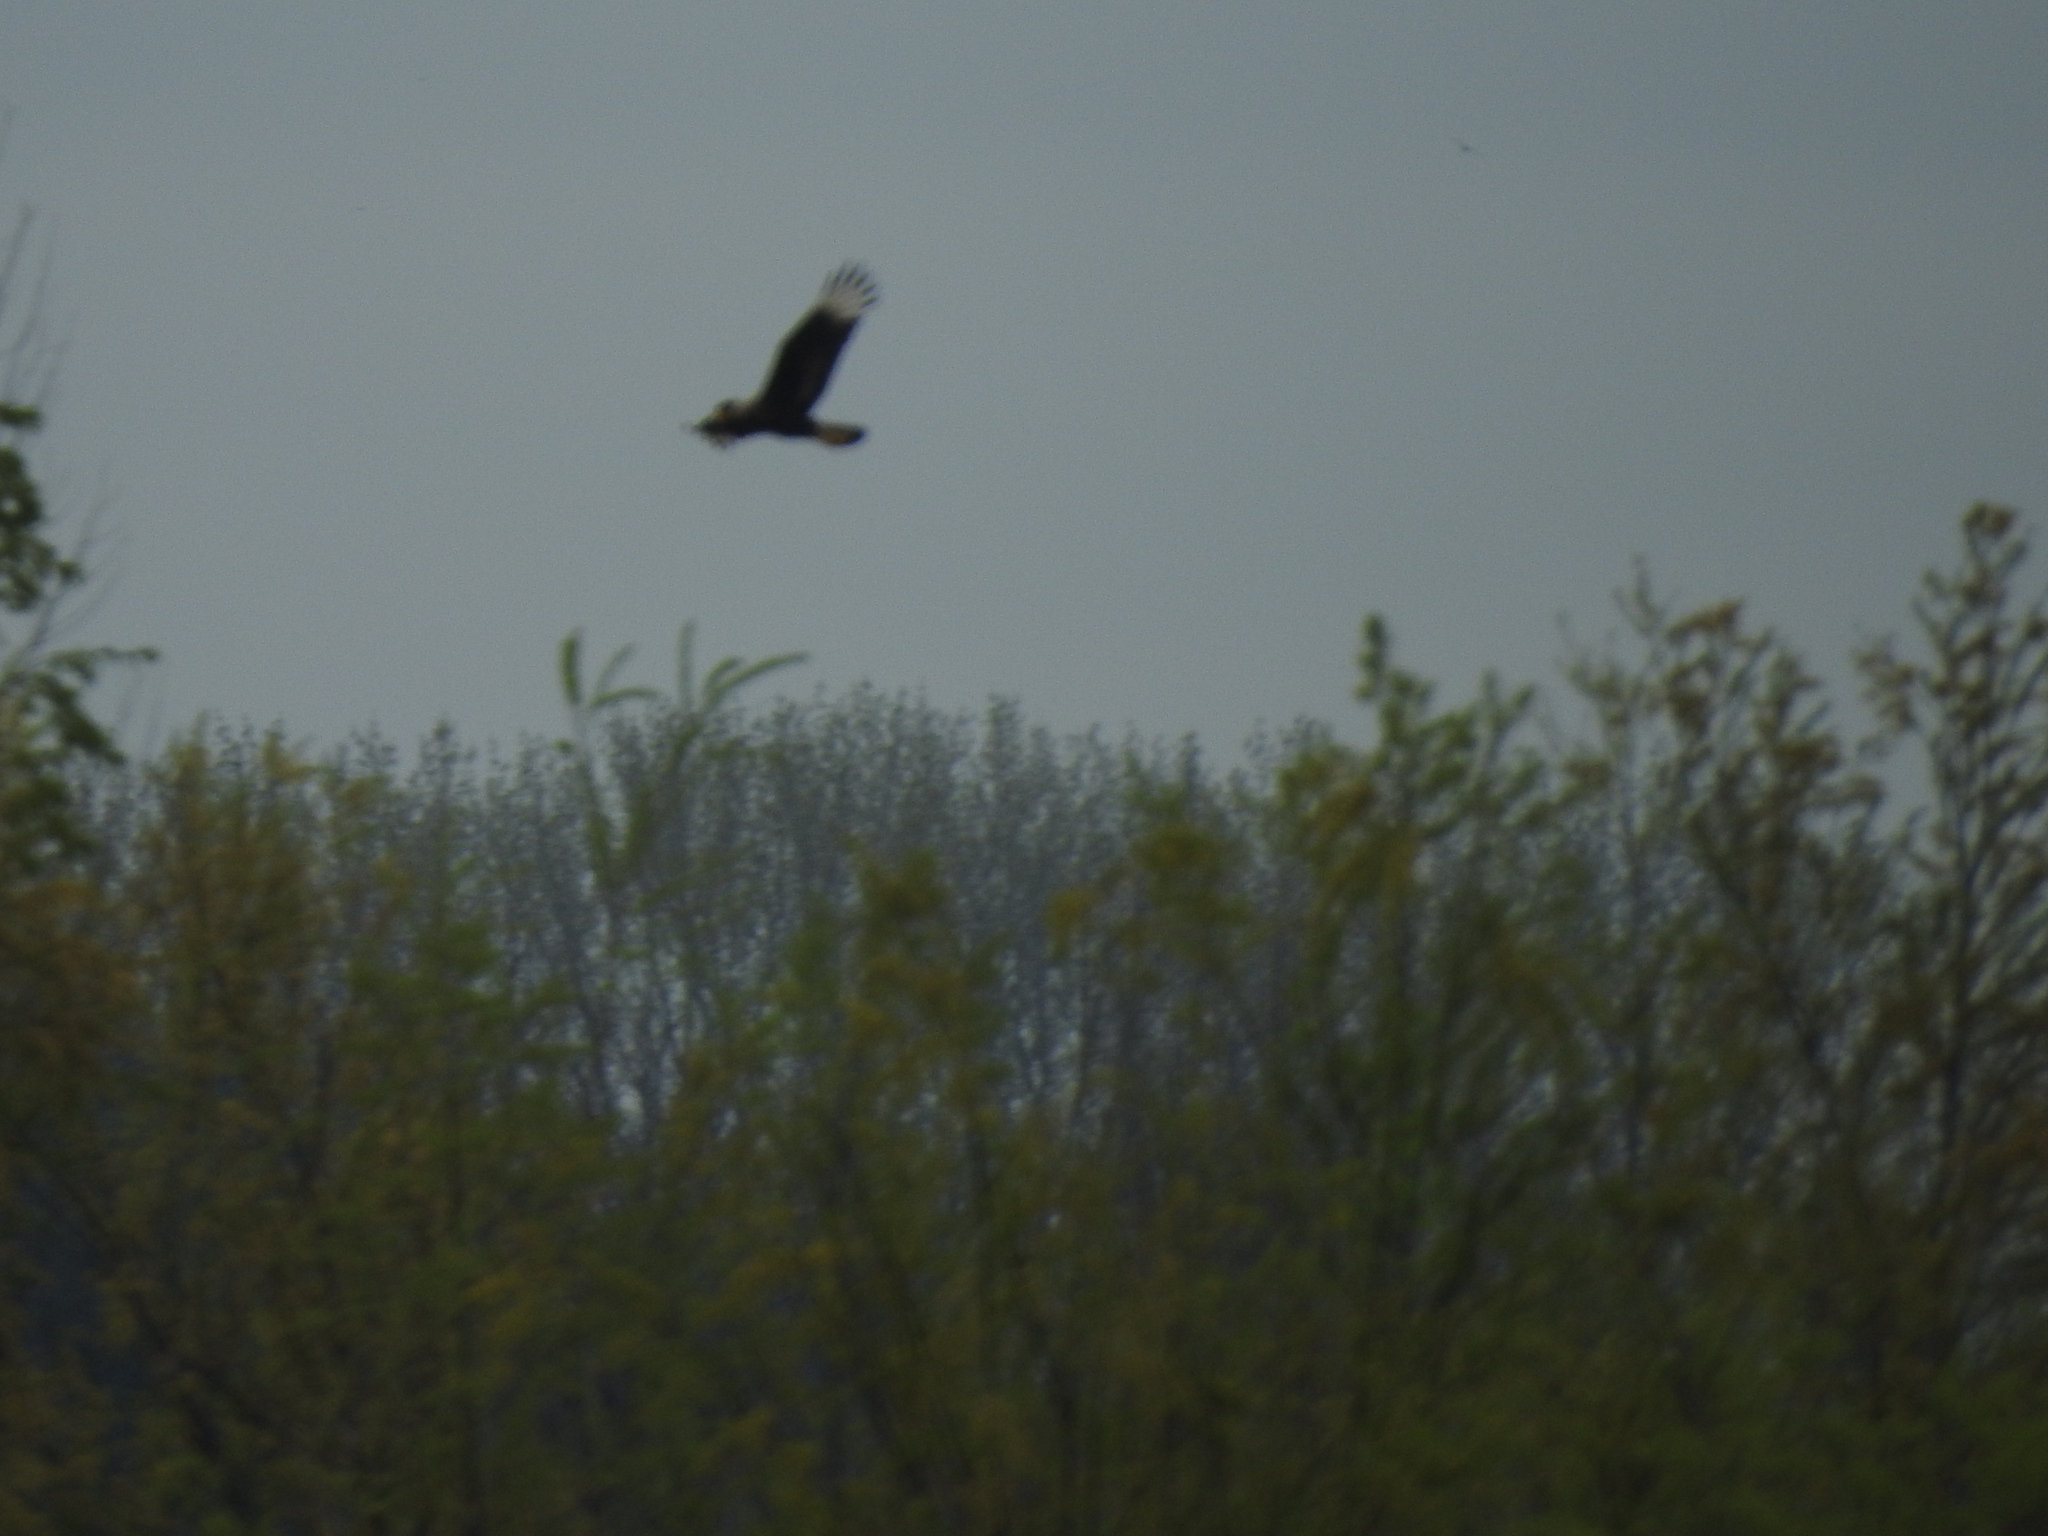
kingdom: Animalia
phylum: Chordata
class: Aves
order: Falconiformes
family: Falconidae
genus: Caracara
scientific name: Caracara plancus
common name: Southern caracara
